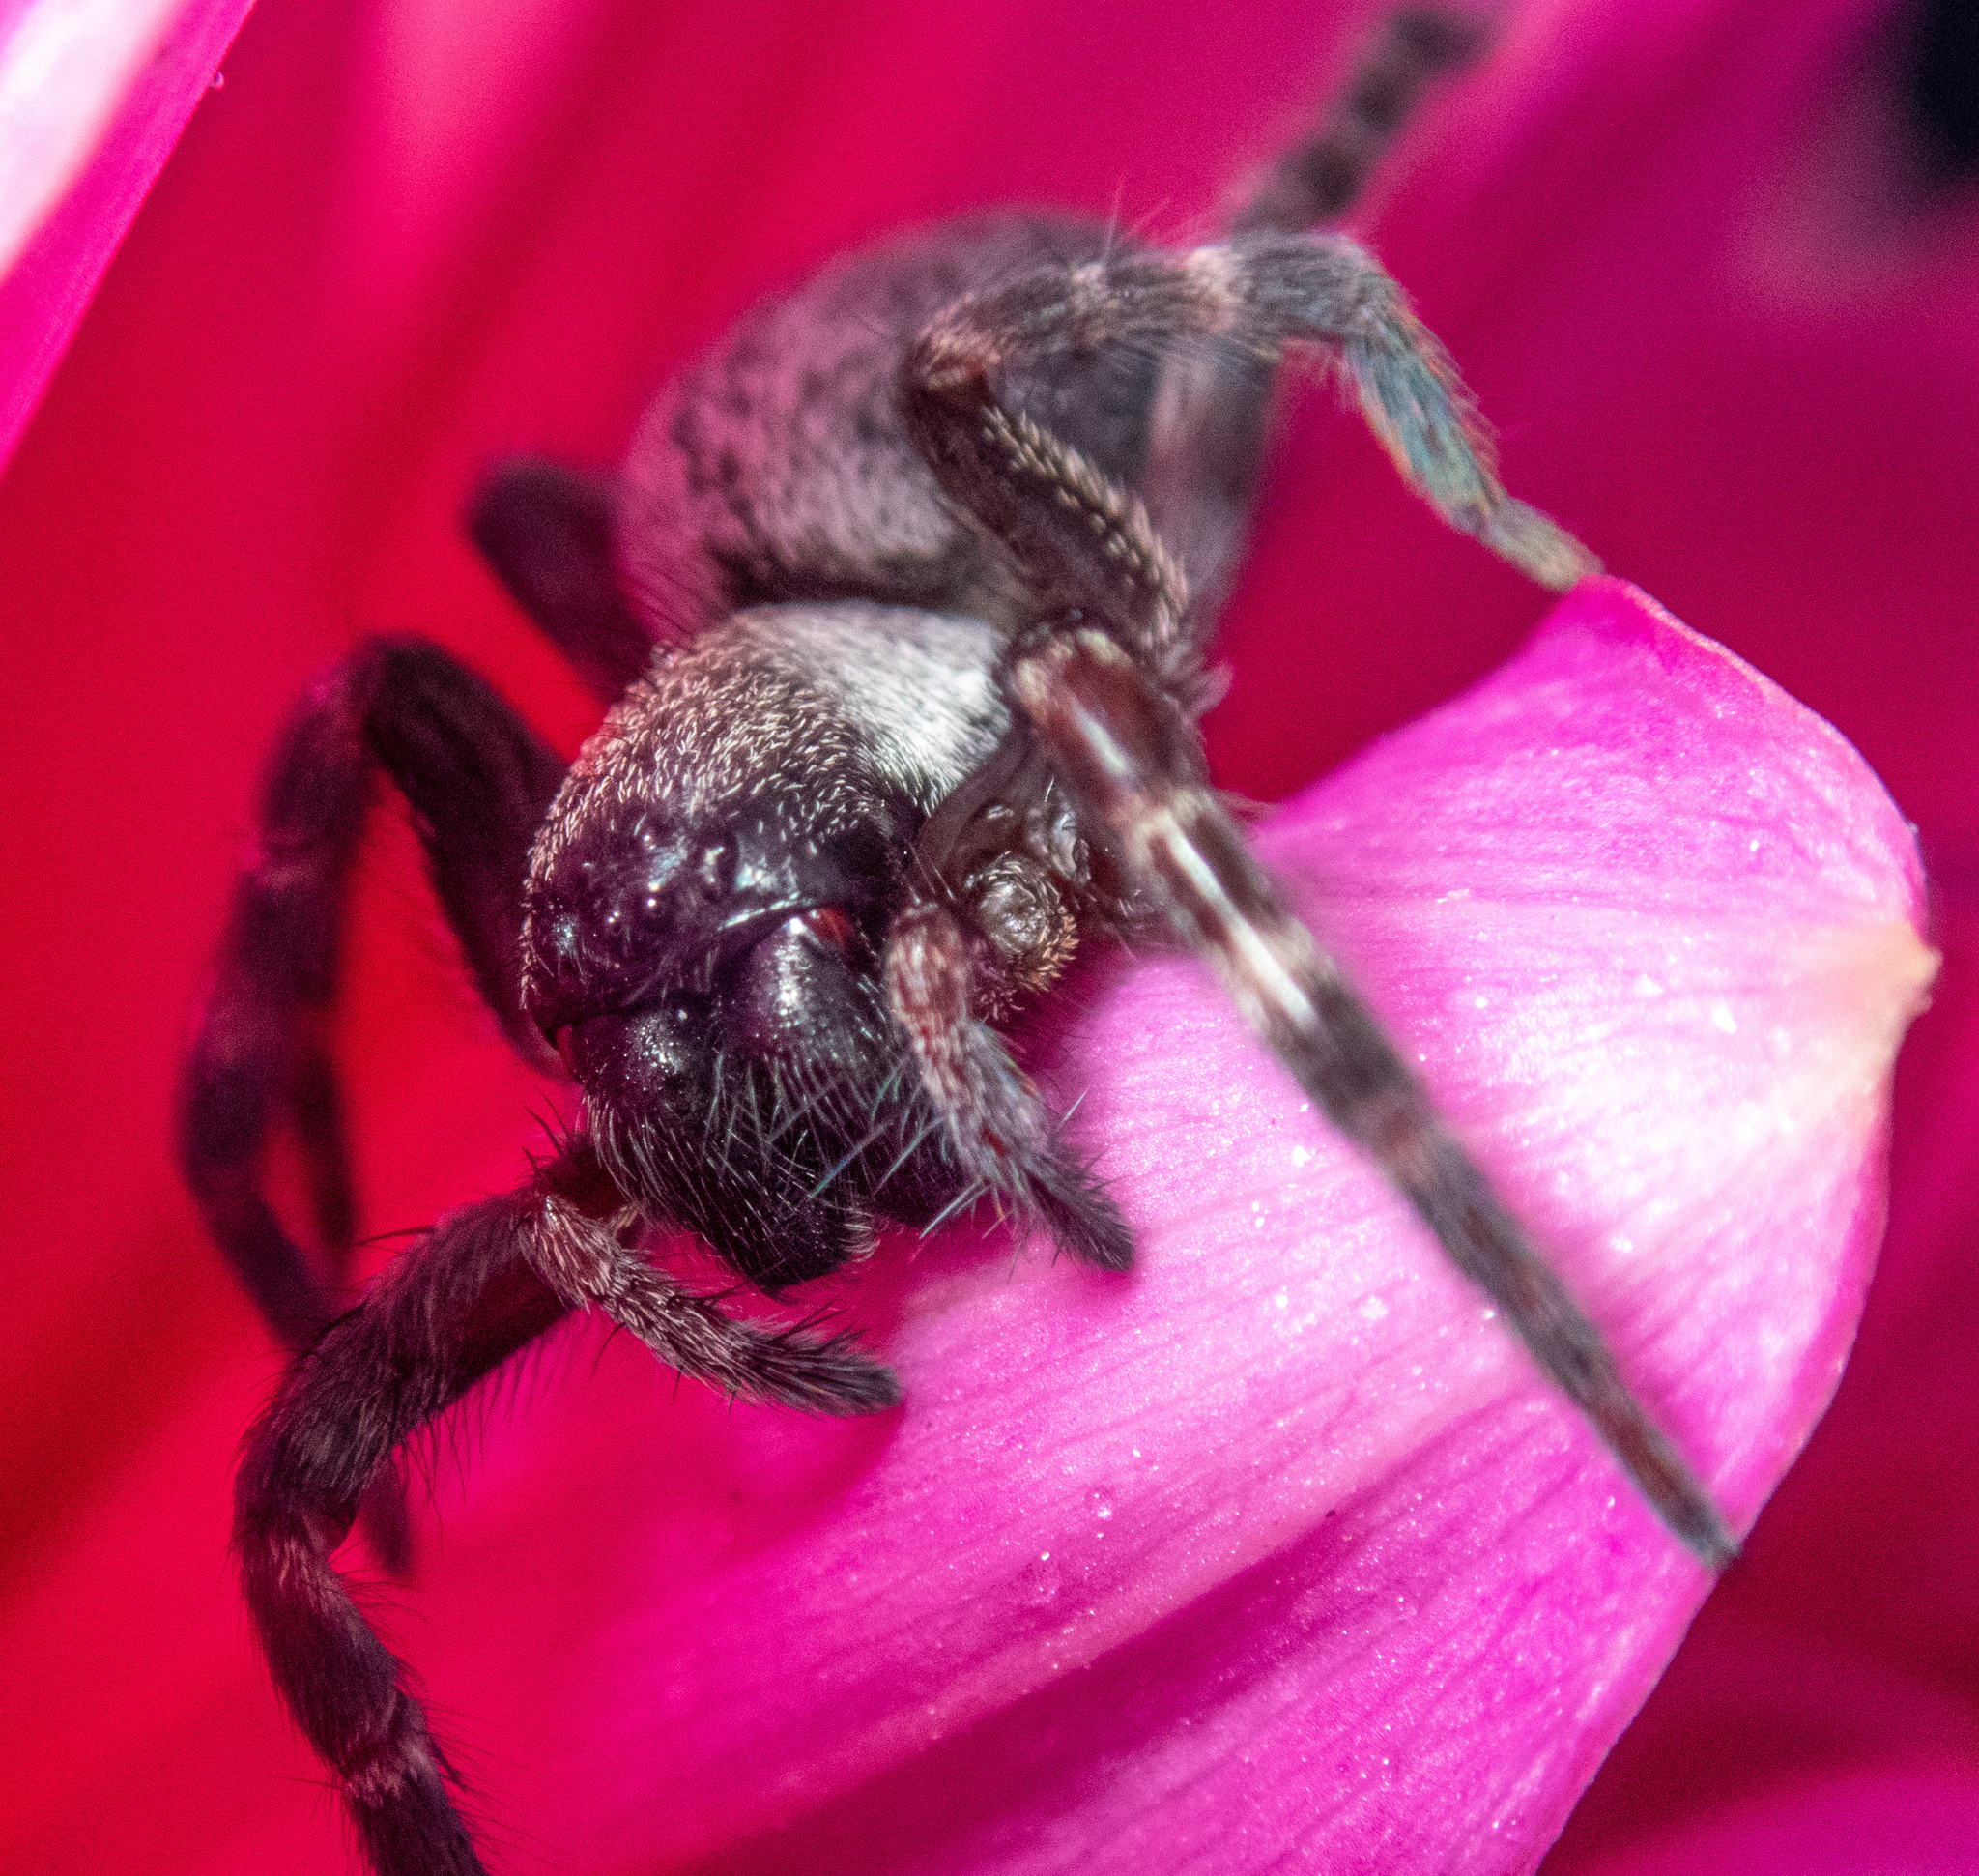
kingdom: Animalia
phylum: Arthropoda
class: Arachnida
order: Araneae
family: Desidae
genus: Badumna
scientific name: Badumna longinqua
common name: Gray house spider
